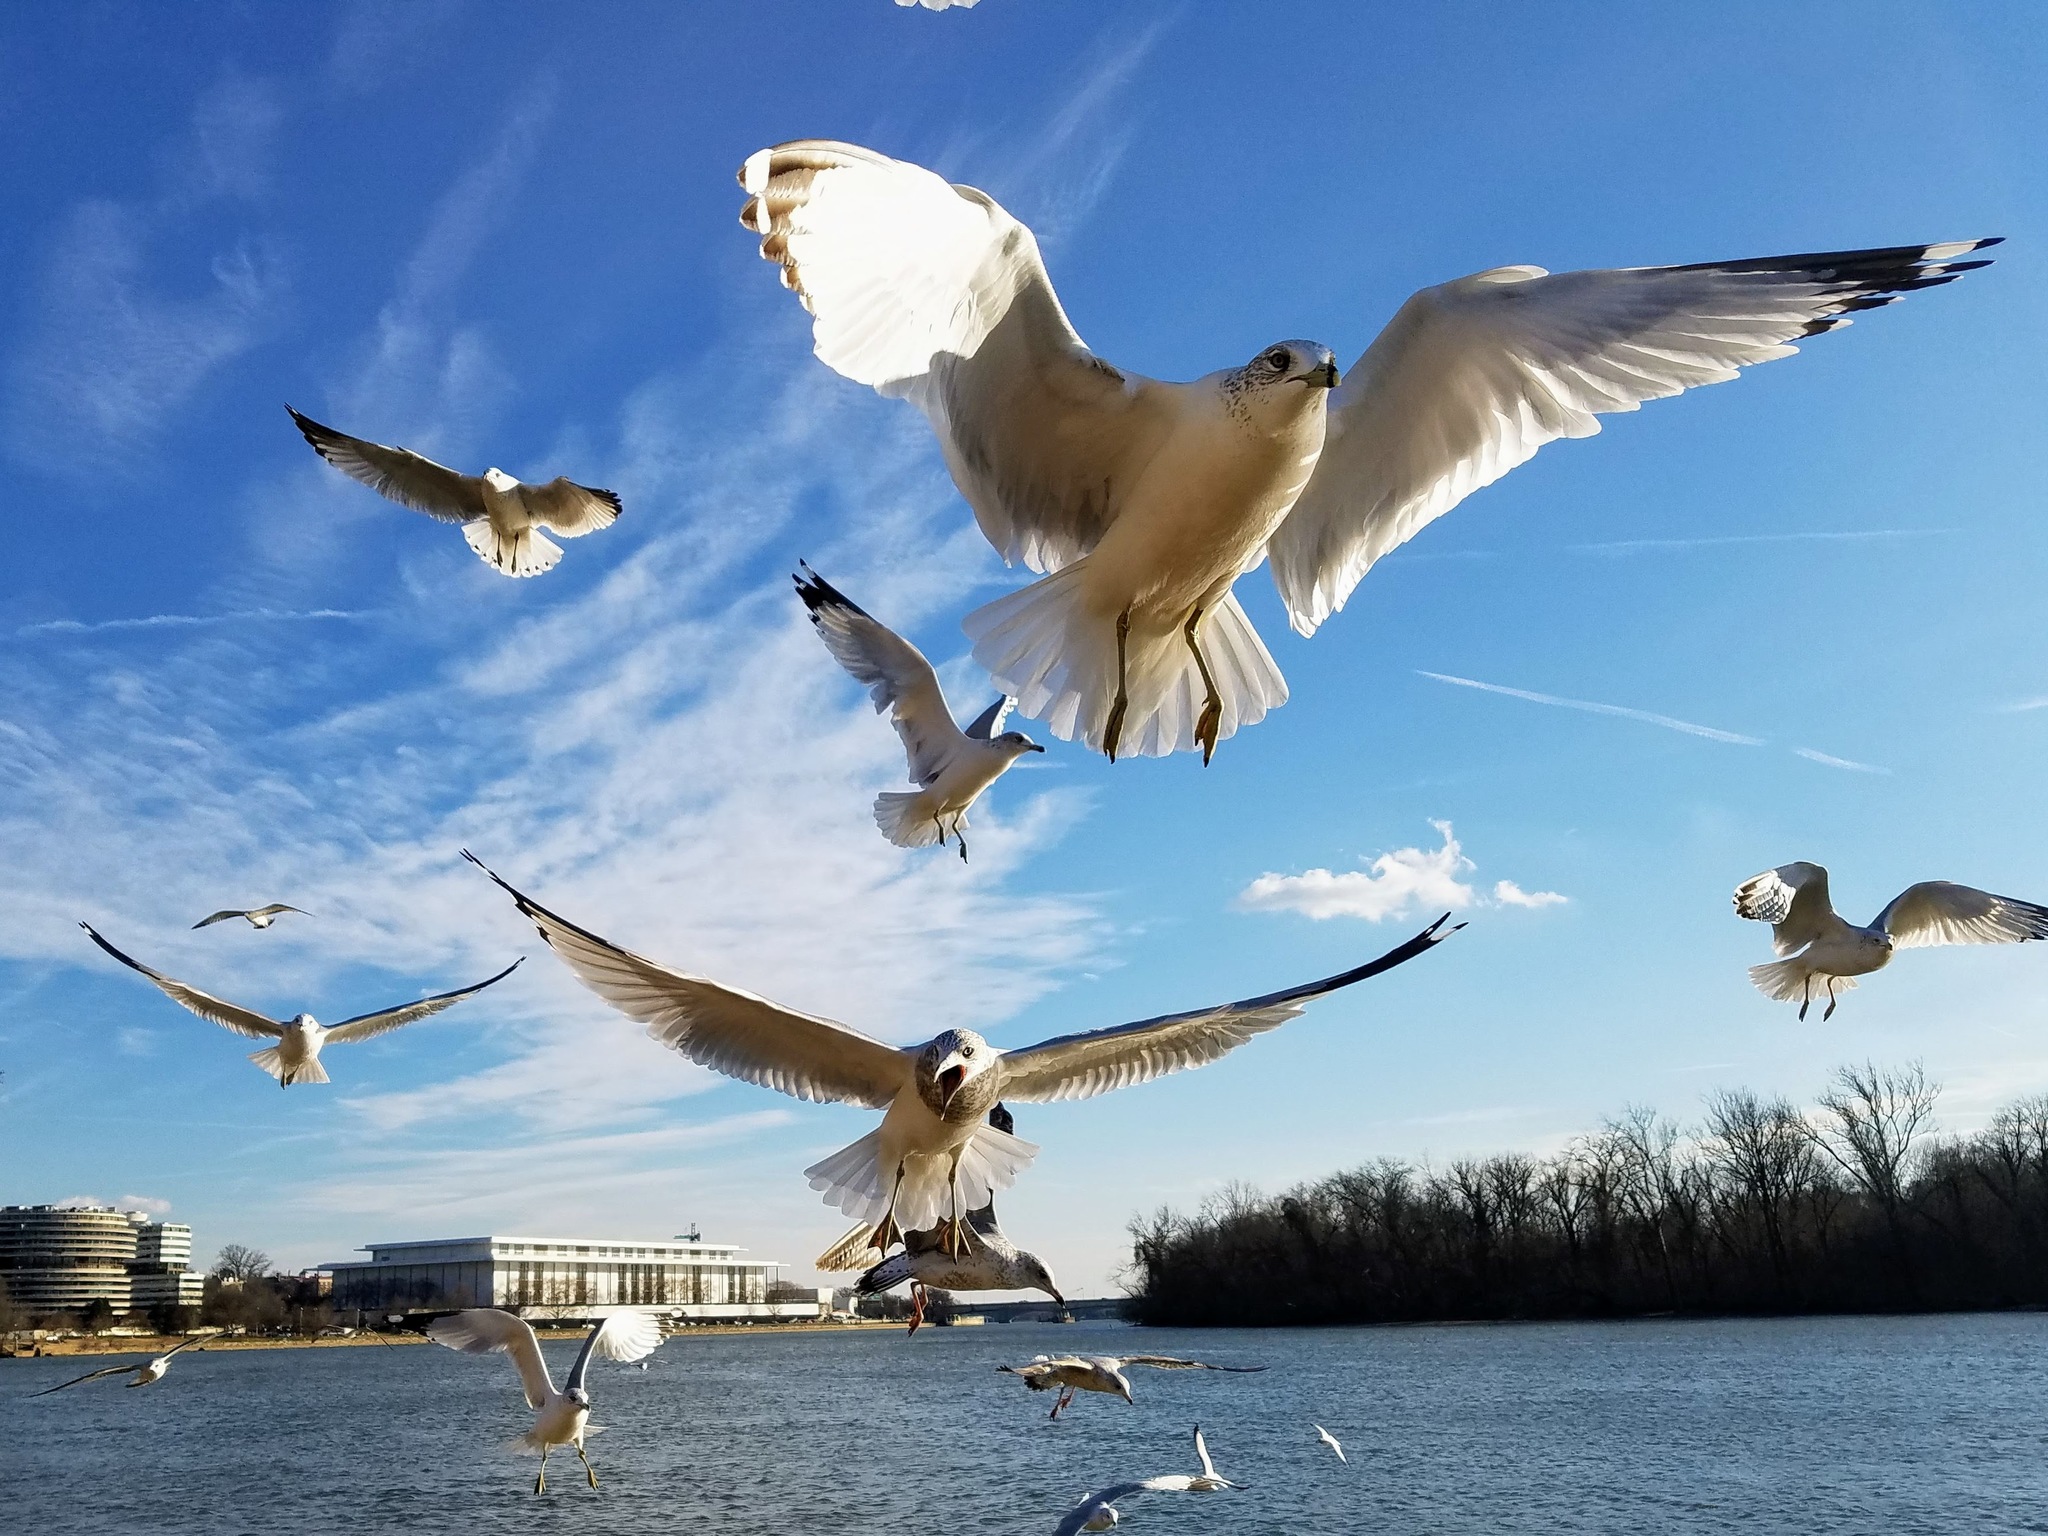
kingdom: Animalia
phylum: Chordata
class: Aves
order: Charadriiformes
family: Laridae
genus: Larus
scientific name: Larus delawarensis
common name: Ring-billed gull
